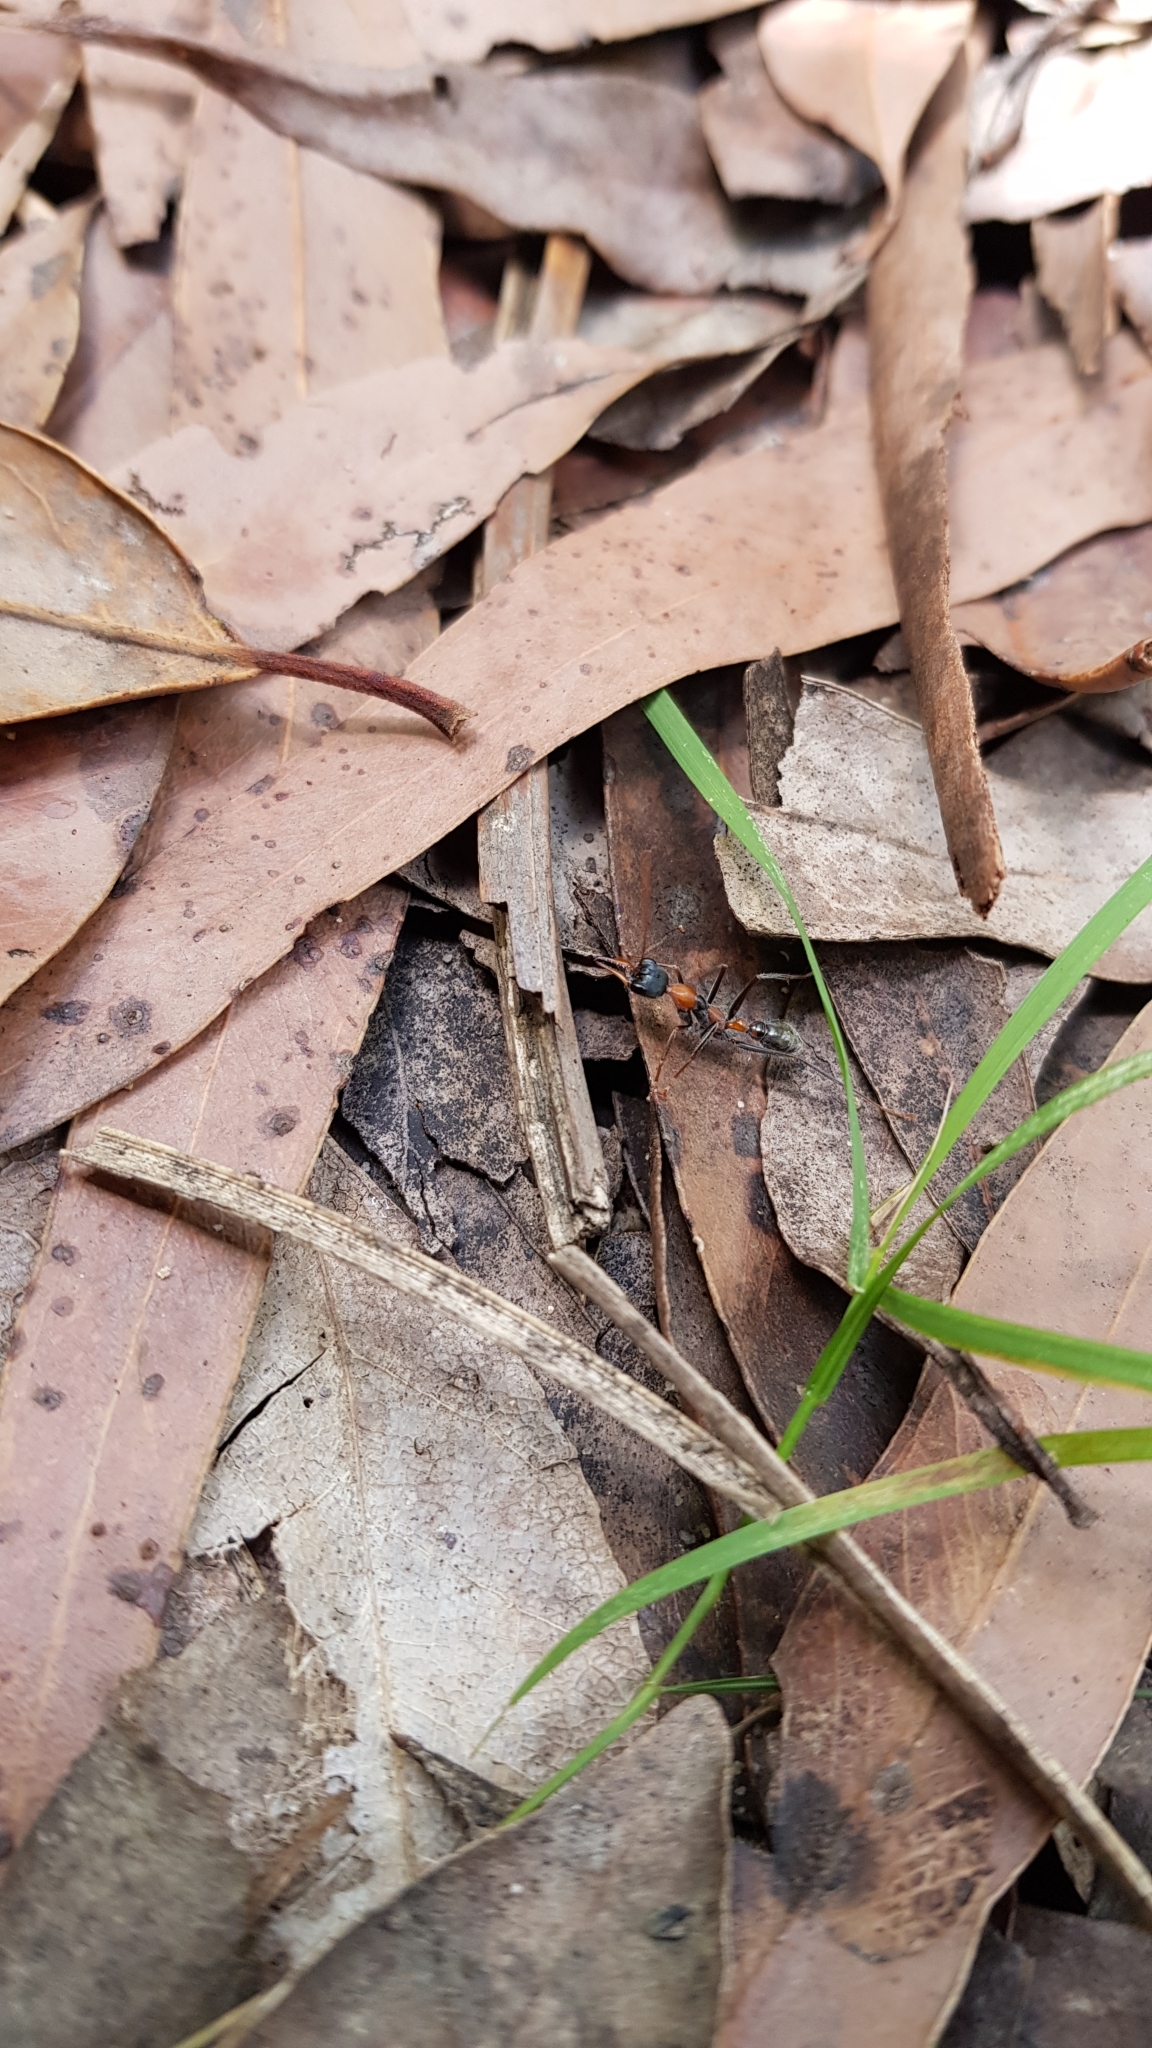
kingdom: Animalia
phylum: Arthropoda
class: Insecta
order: Hymenoptera
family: Formicidae
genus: Myrmecia
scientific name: Myrmecia nigrocincta
